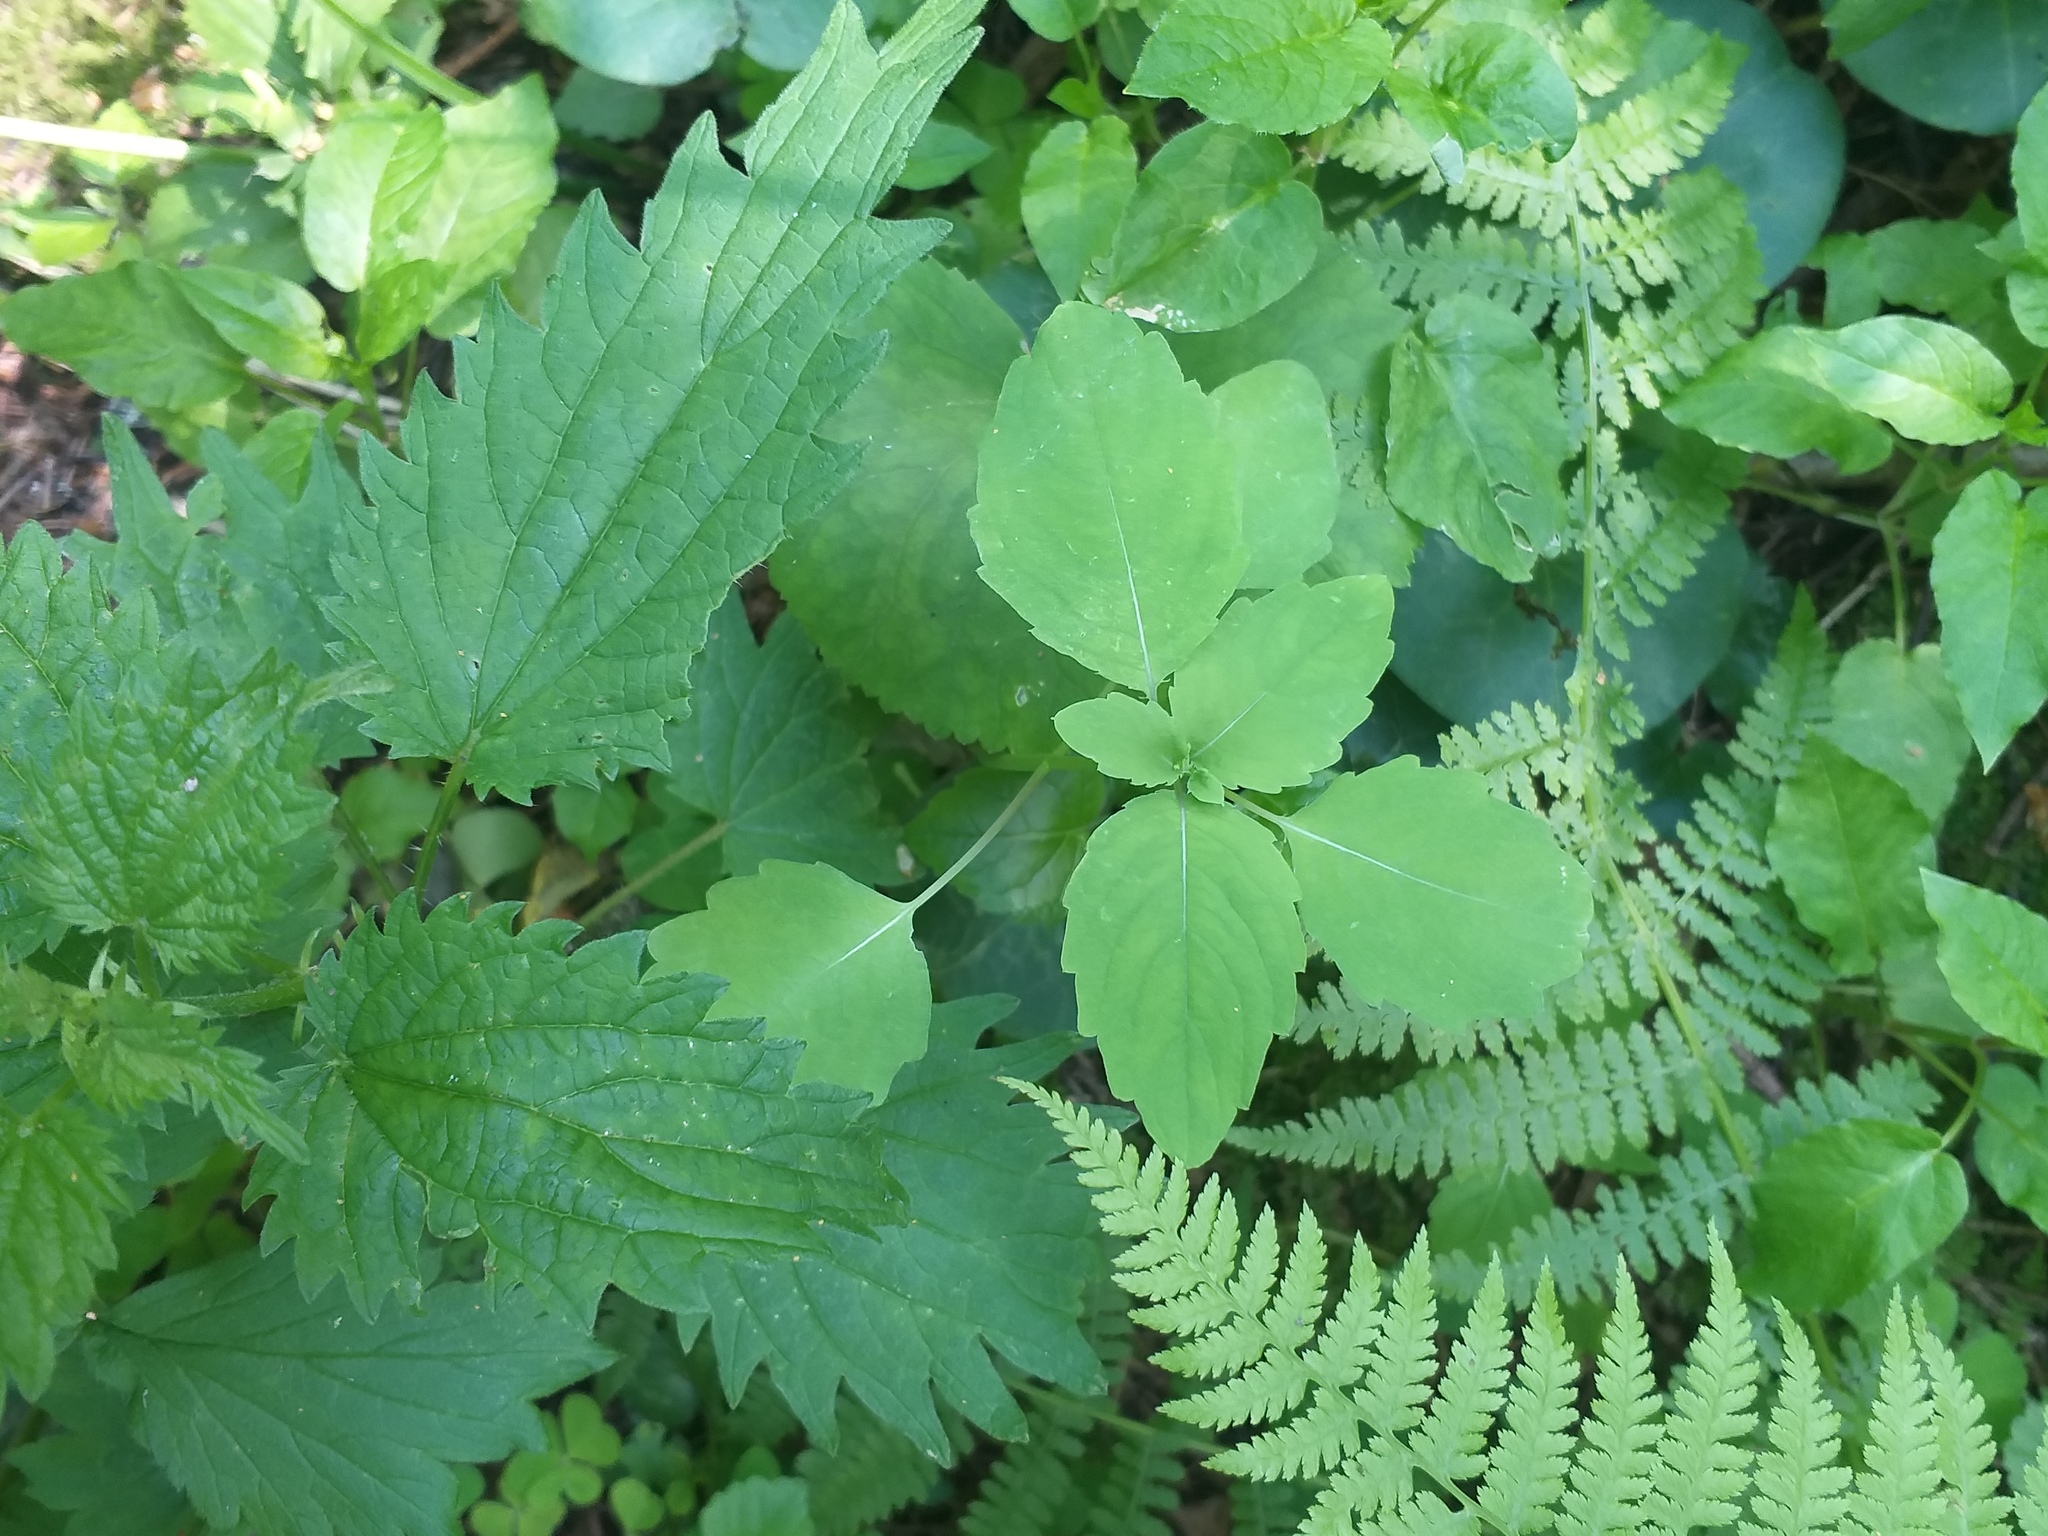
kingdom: Plantae
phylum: Tracheophyta
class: Magnoliopsida
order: Ericales
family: Balsaminaceae
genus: Impatiens
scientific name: Impatiens noli-tangere
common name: Touch-me-not balsam
